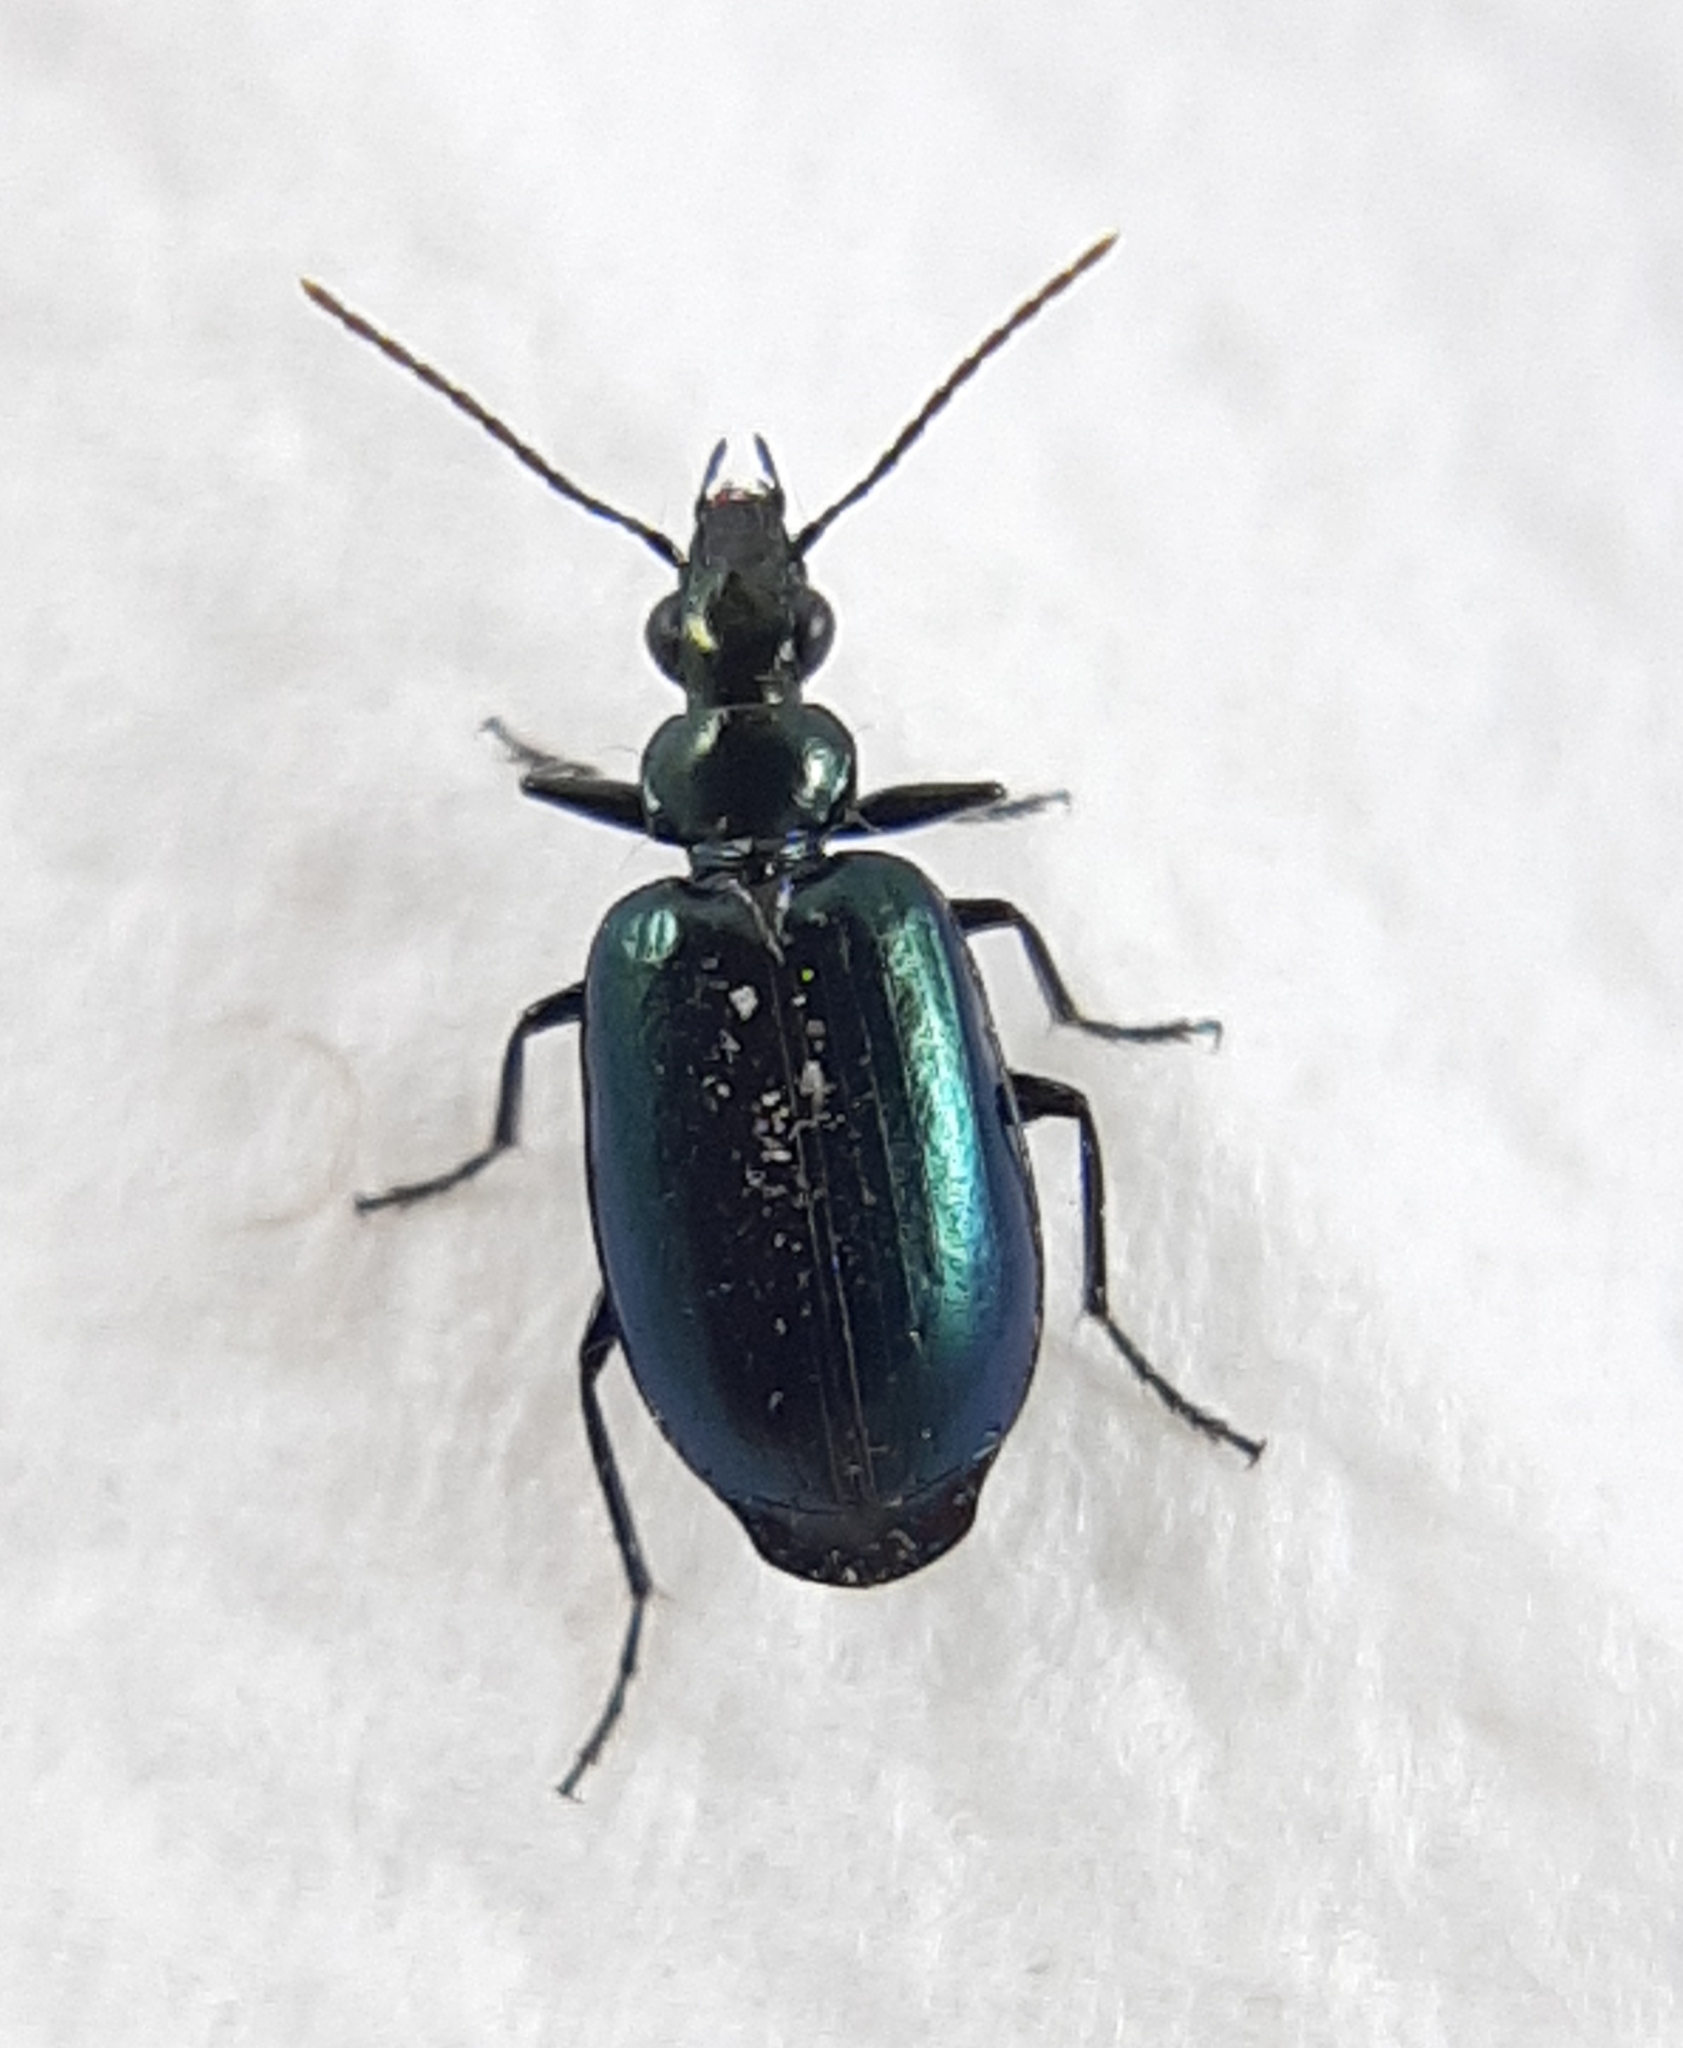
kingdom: Animalia
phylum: Arthropoda
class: Insecta
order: Coleoptera
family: Carabidae
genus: Lebia
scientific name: Lebia viridis
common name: Flower lebia beetle
